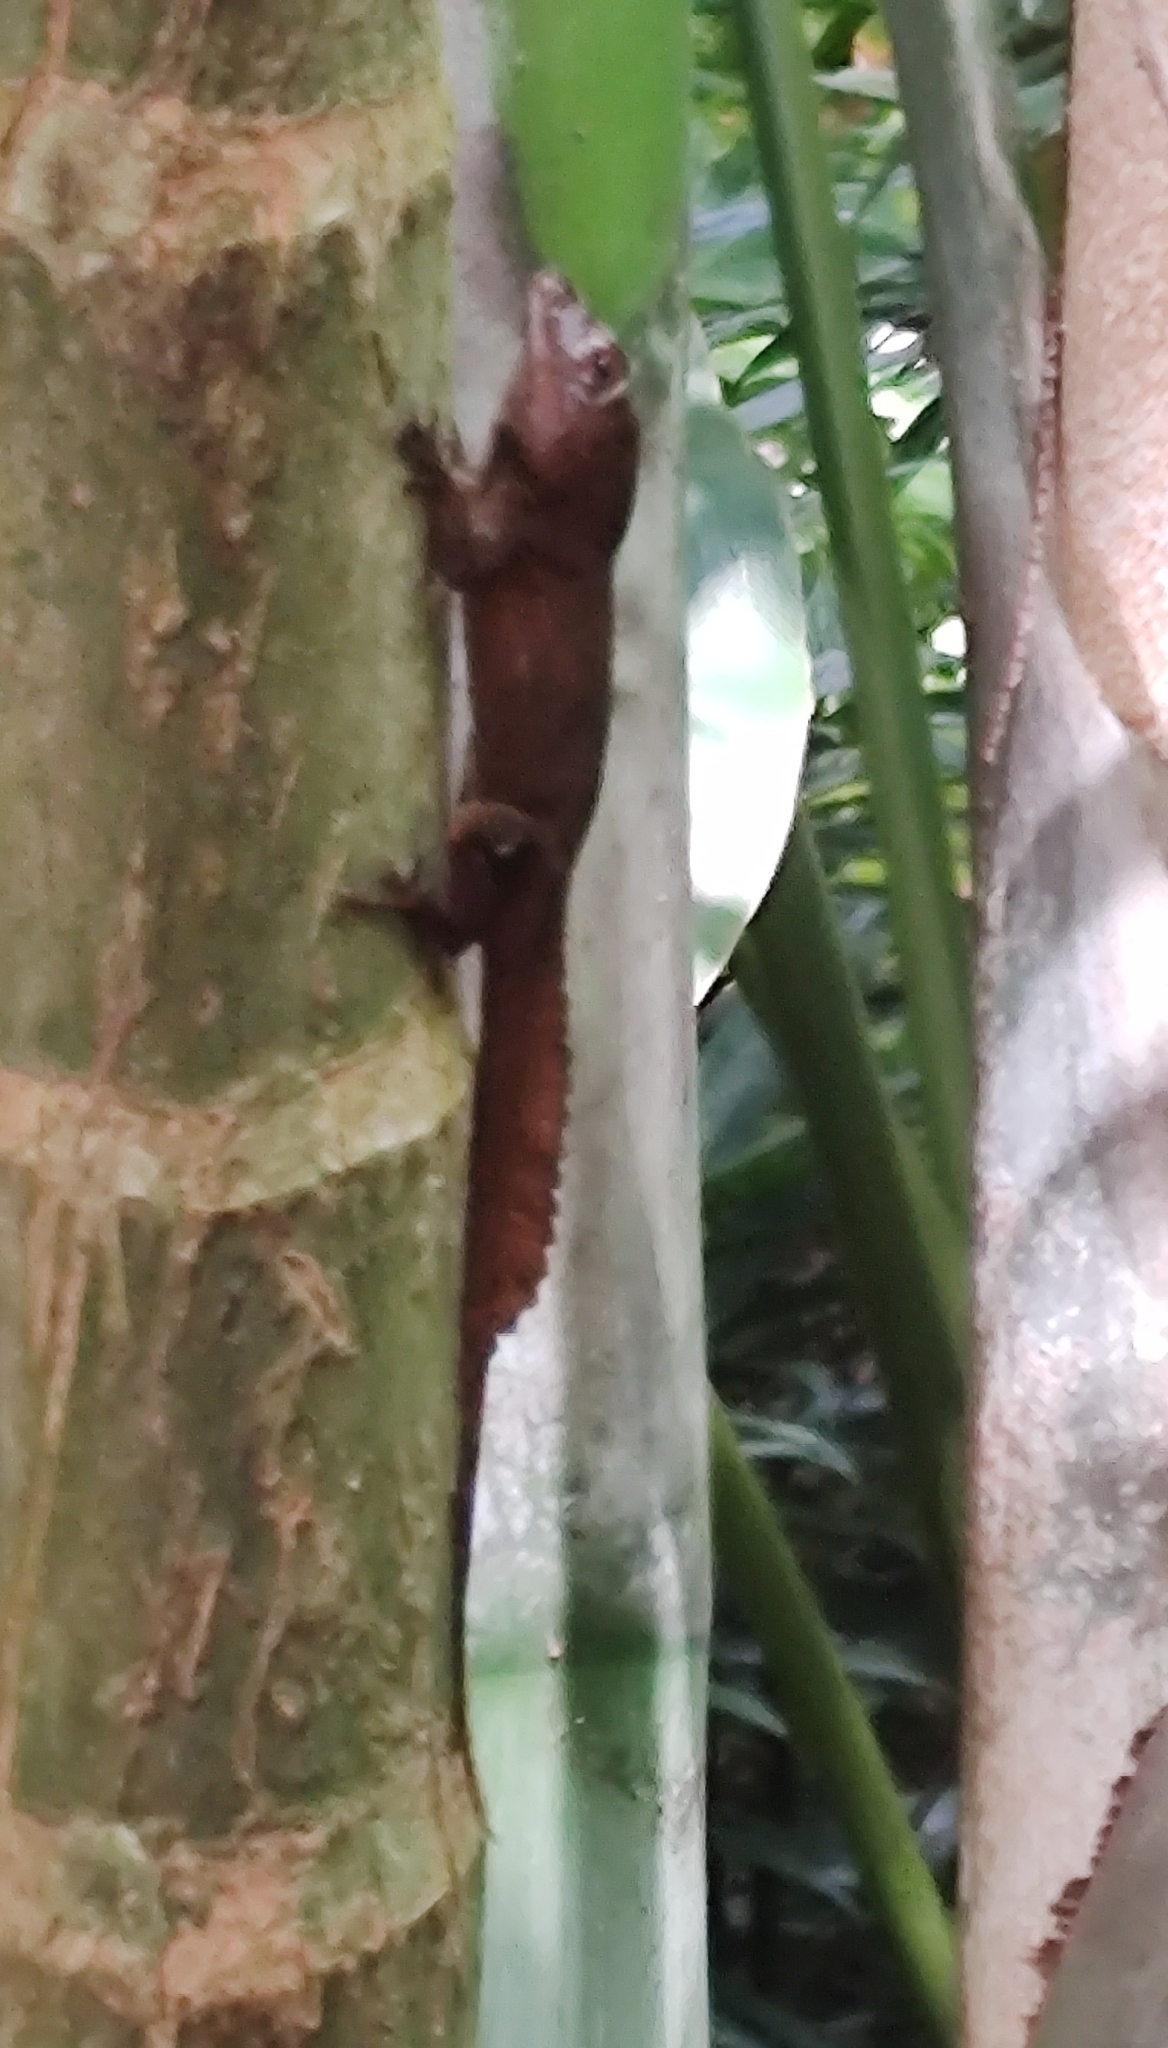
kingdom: Animalia
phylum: Chordata
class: Squamata
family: Dactyloidae
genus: Anolis
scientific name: Anolis cristatellus
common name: Crested anole
